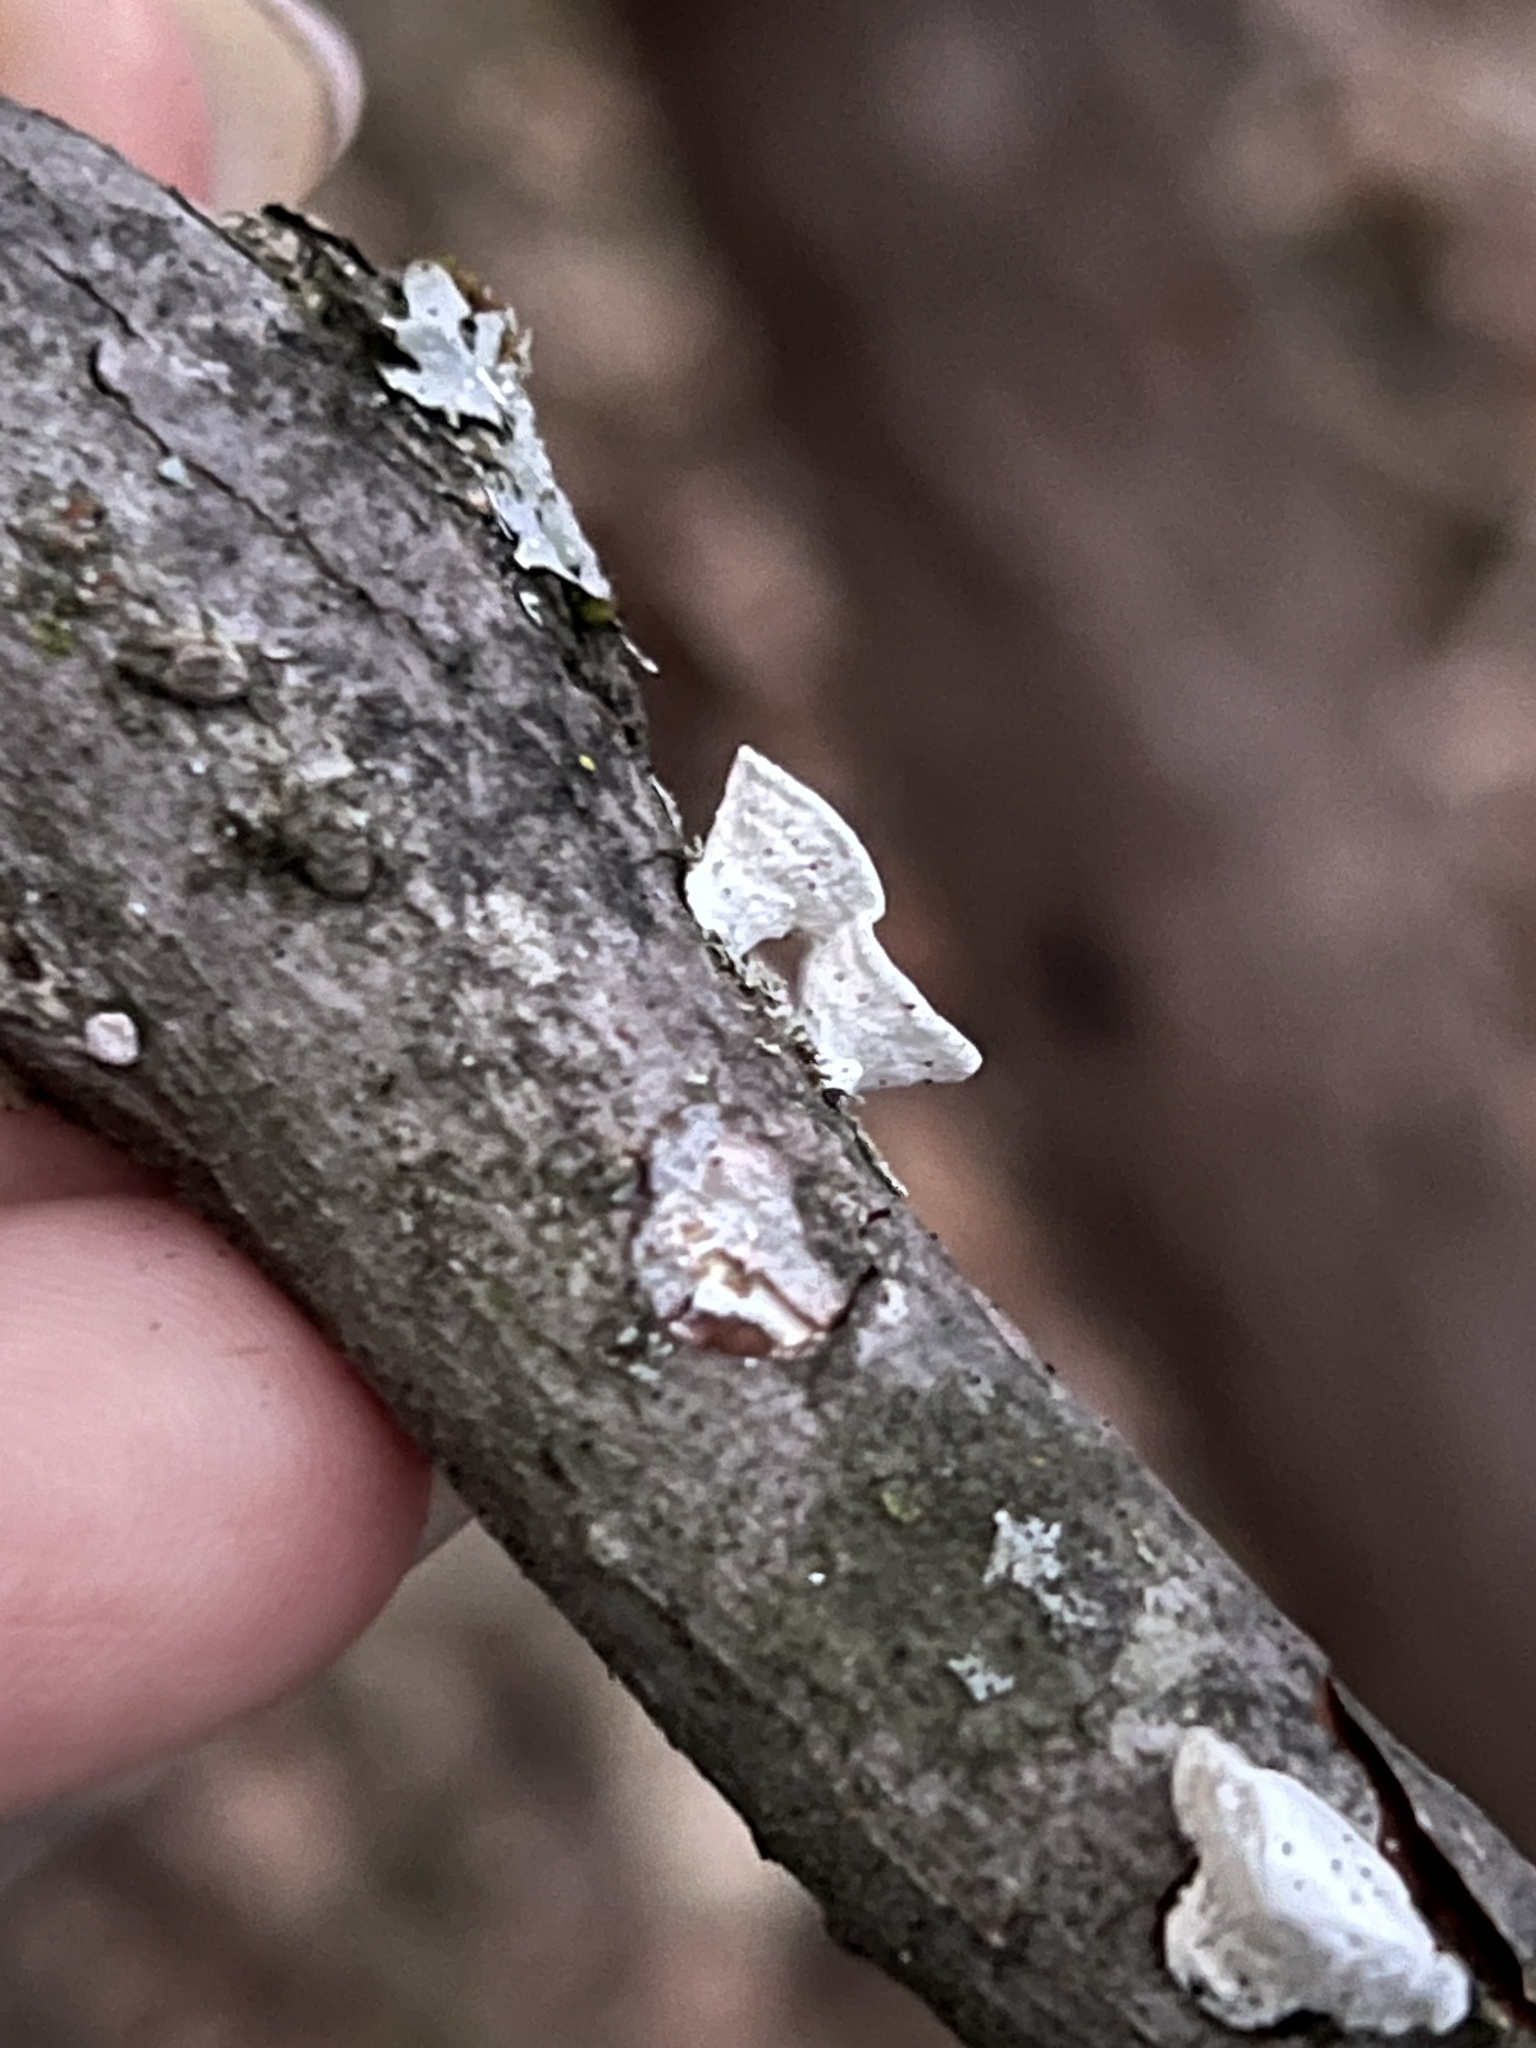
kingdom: Fungi
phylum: Basidiomycota
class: Agaricomycetes
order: Polyporales
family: Polyporaceae
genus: Poronidulus
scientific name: Poronidulus conchifer
